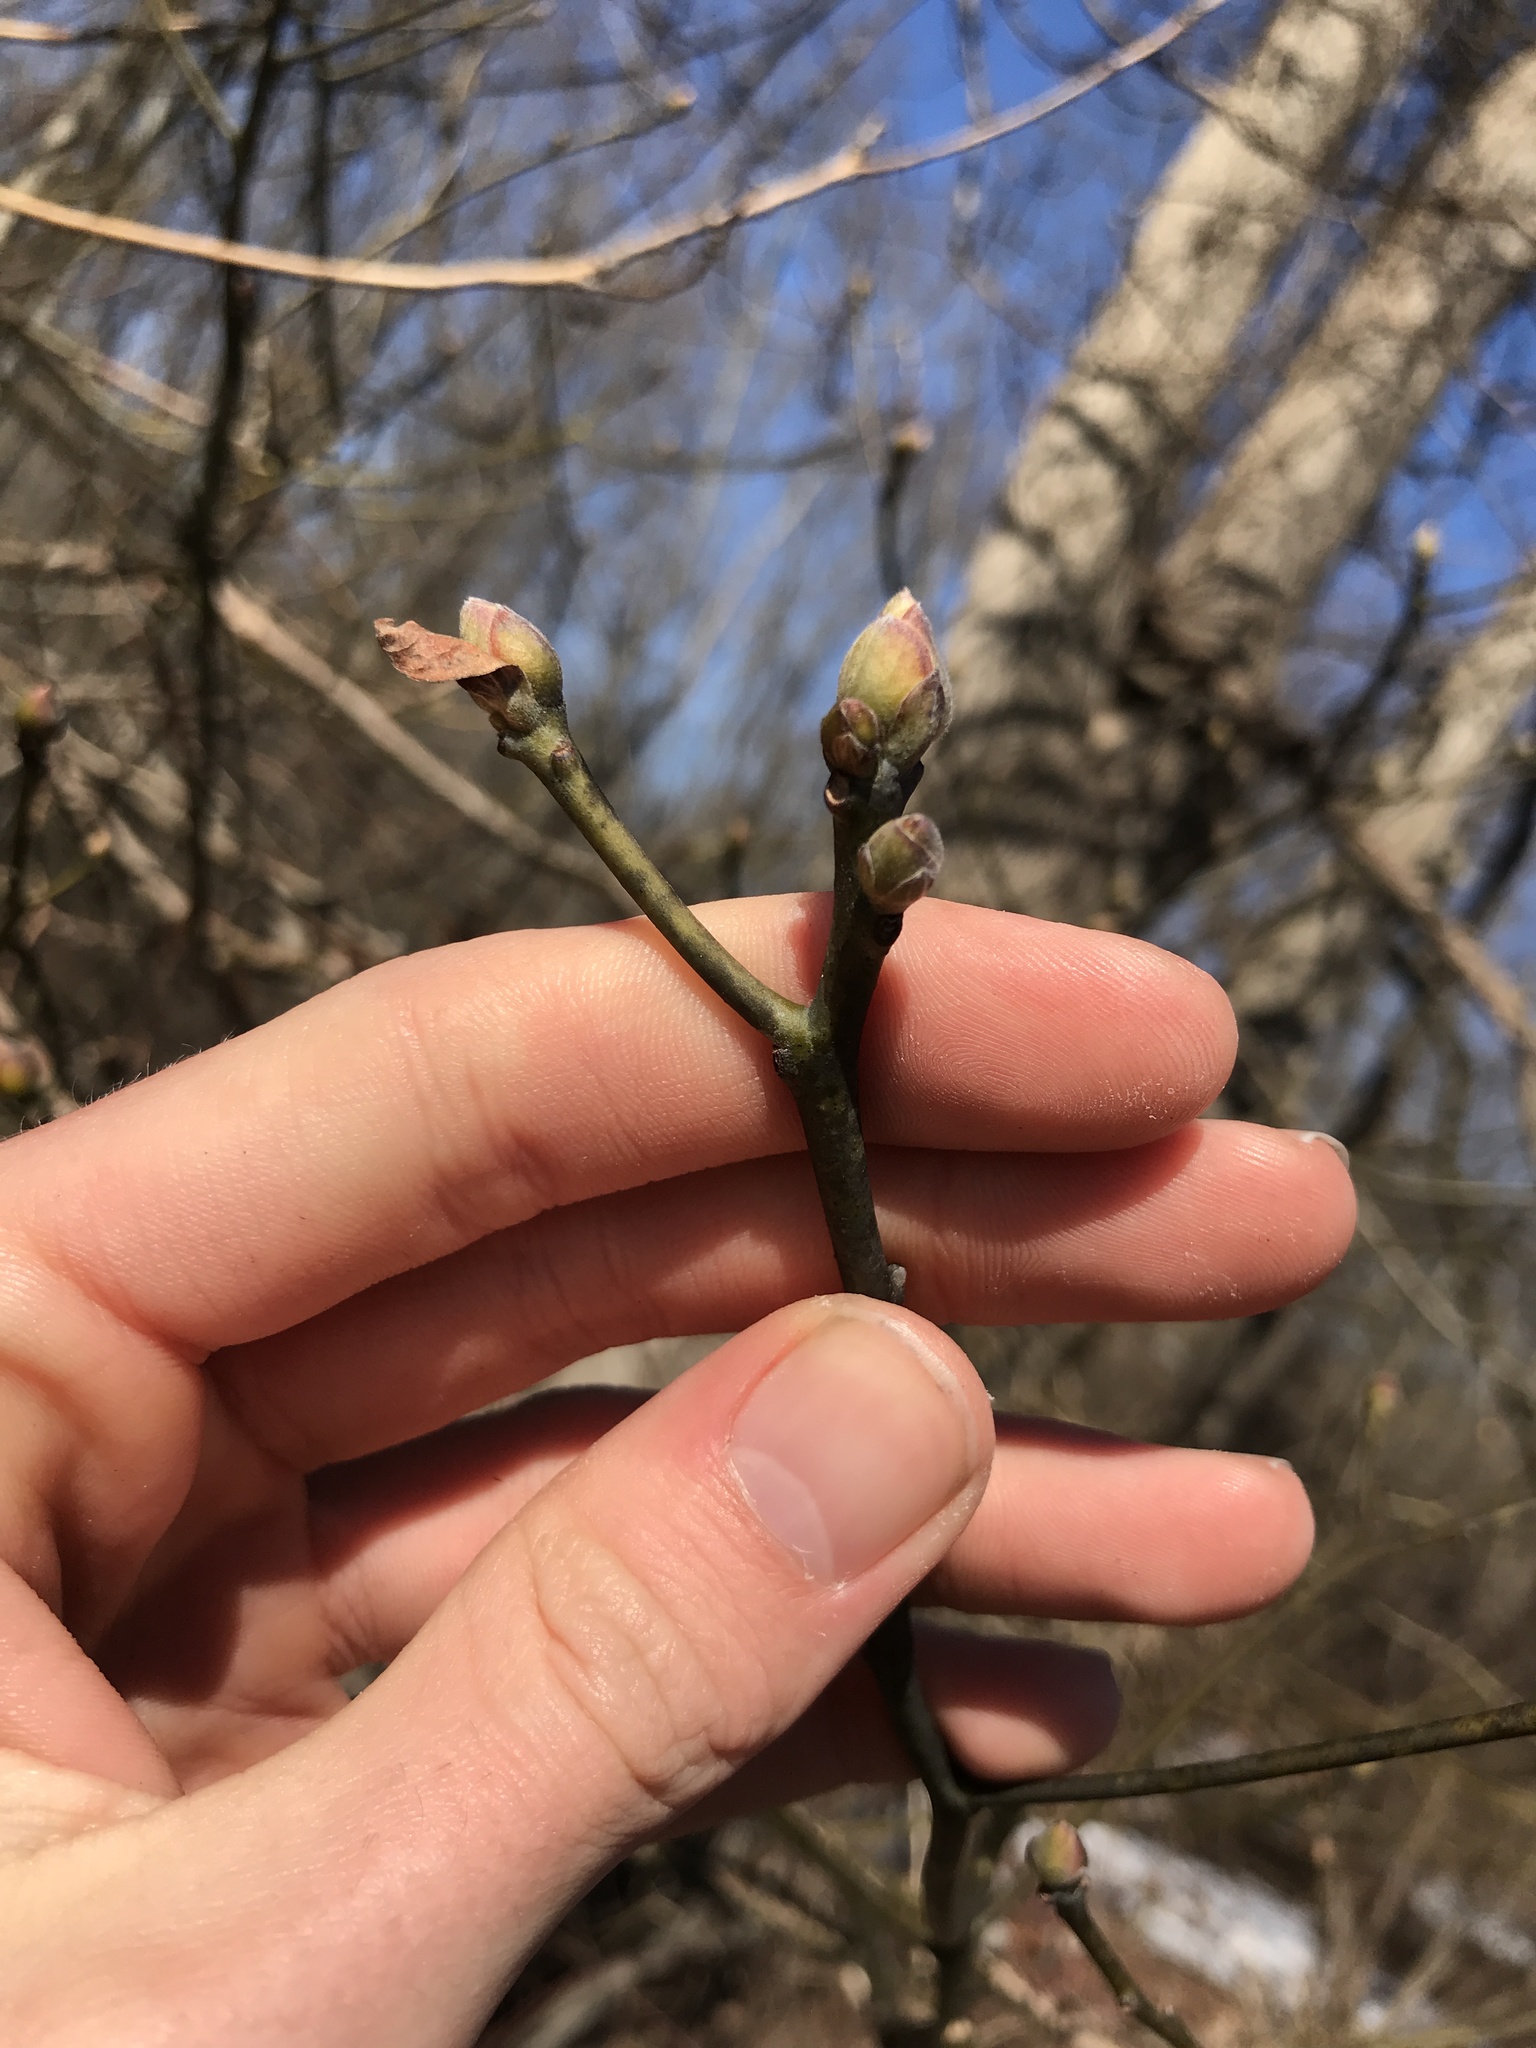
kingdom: Plantae
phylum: Tracheophyta
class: Magnoliopsida
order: Laurales
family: Lauraceae
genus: Sassafras
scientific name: Sassafras albidum
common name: Sassafras
